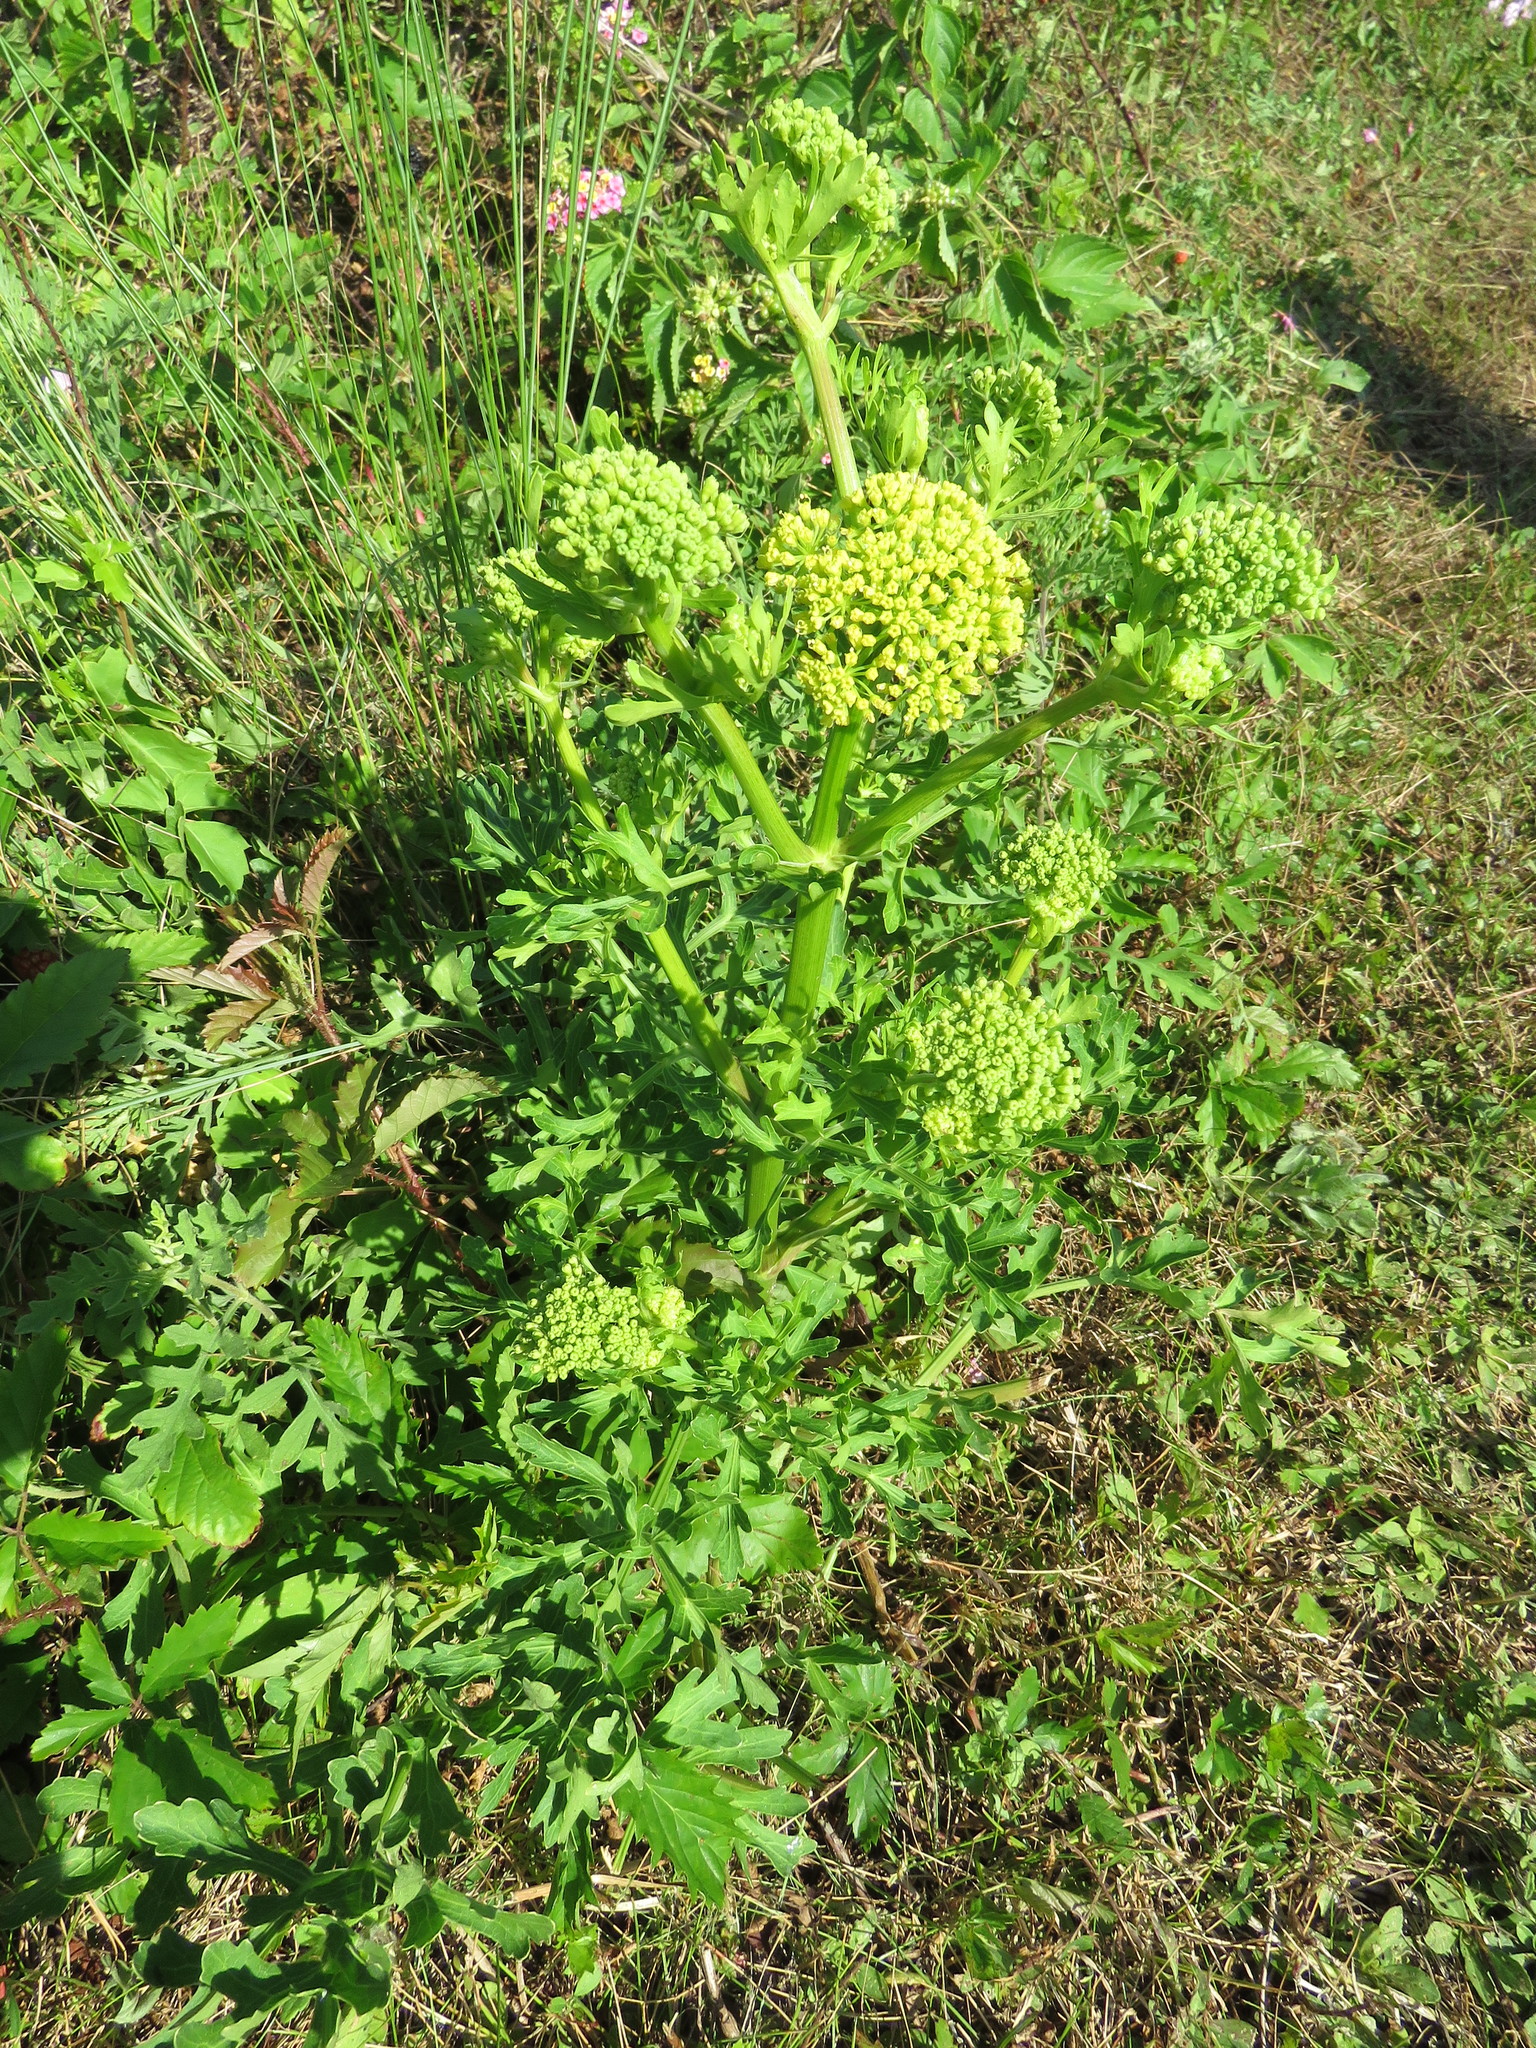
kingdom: Plantae
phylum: Tracheophyta
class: Magnoliopsida
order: Apiales
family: Apiaceae
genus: Polytaenia
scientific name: Polytaenia texana
